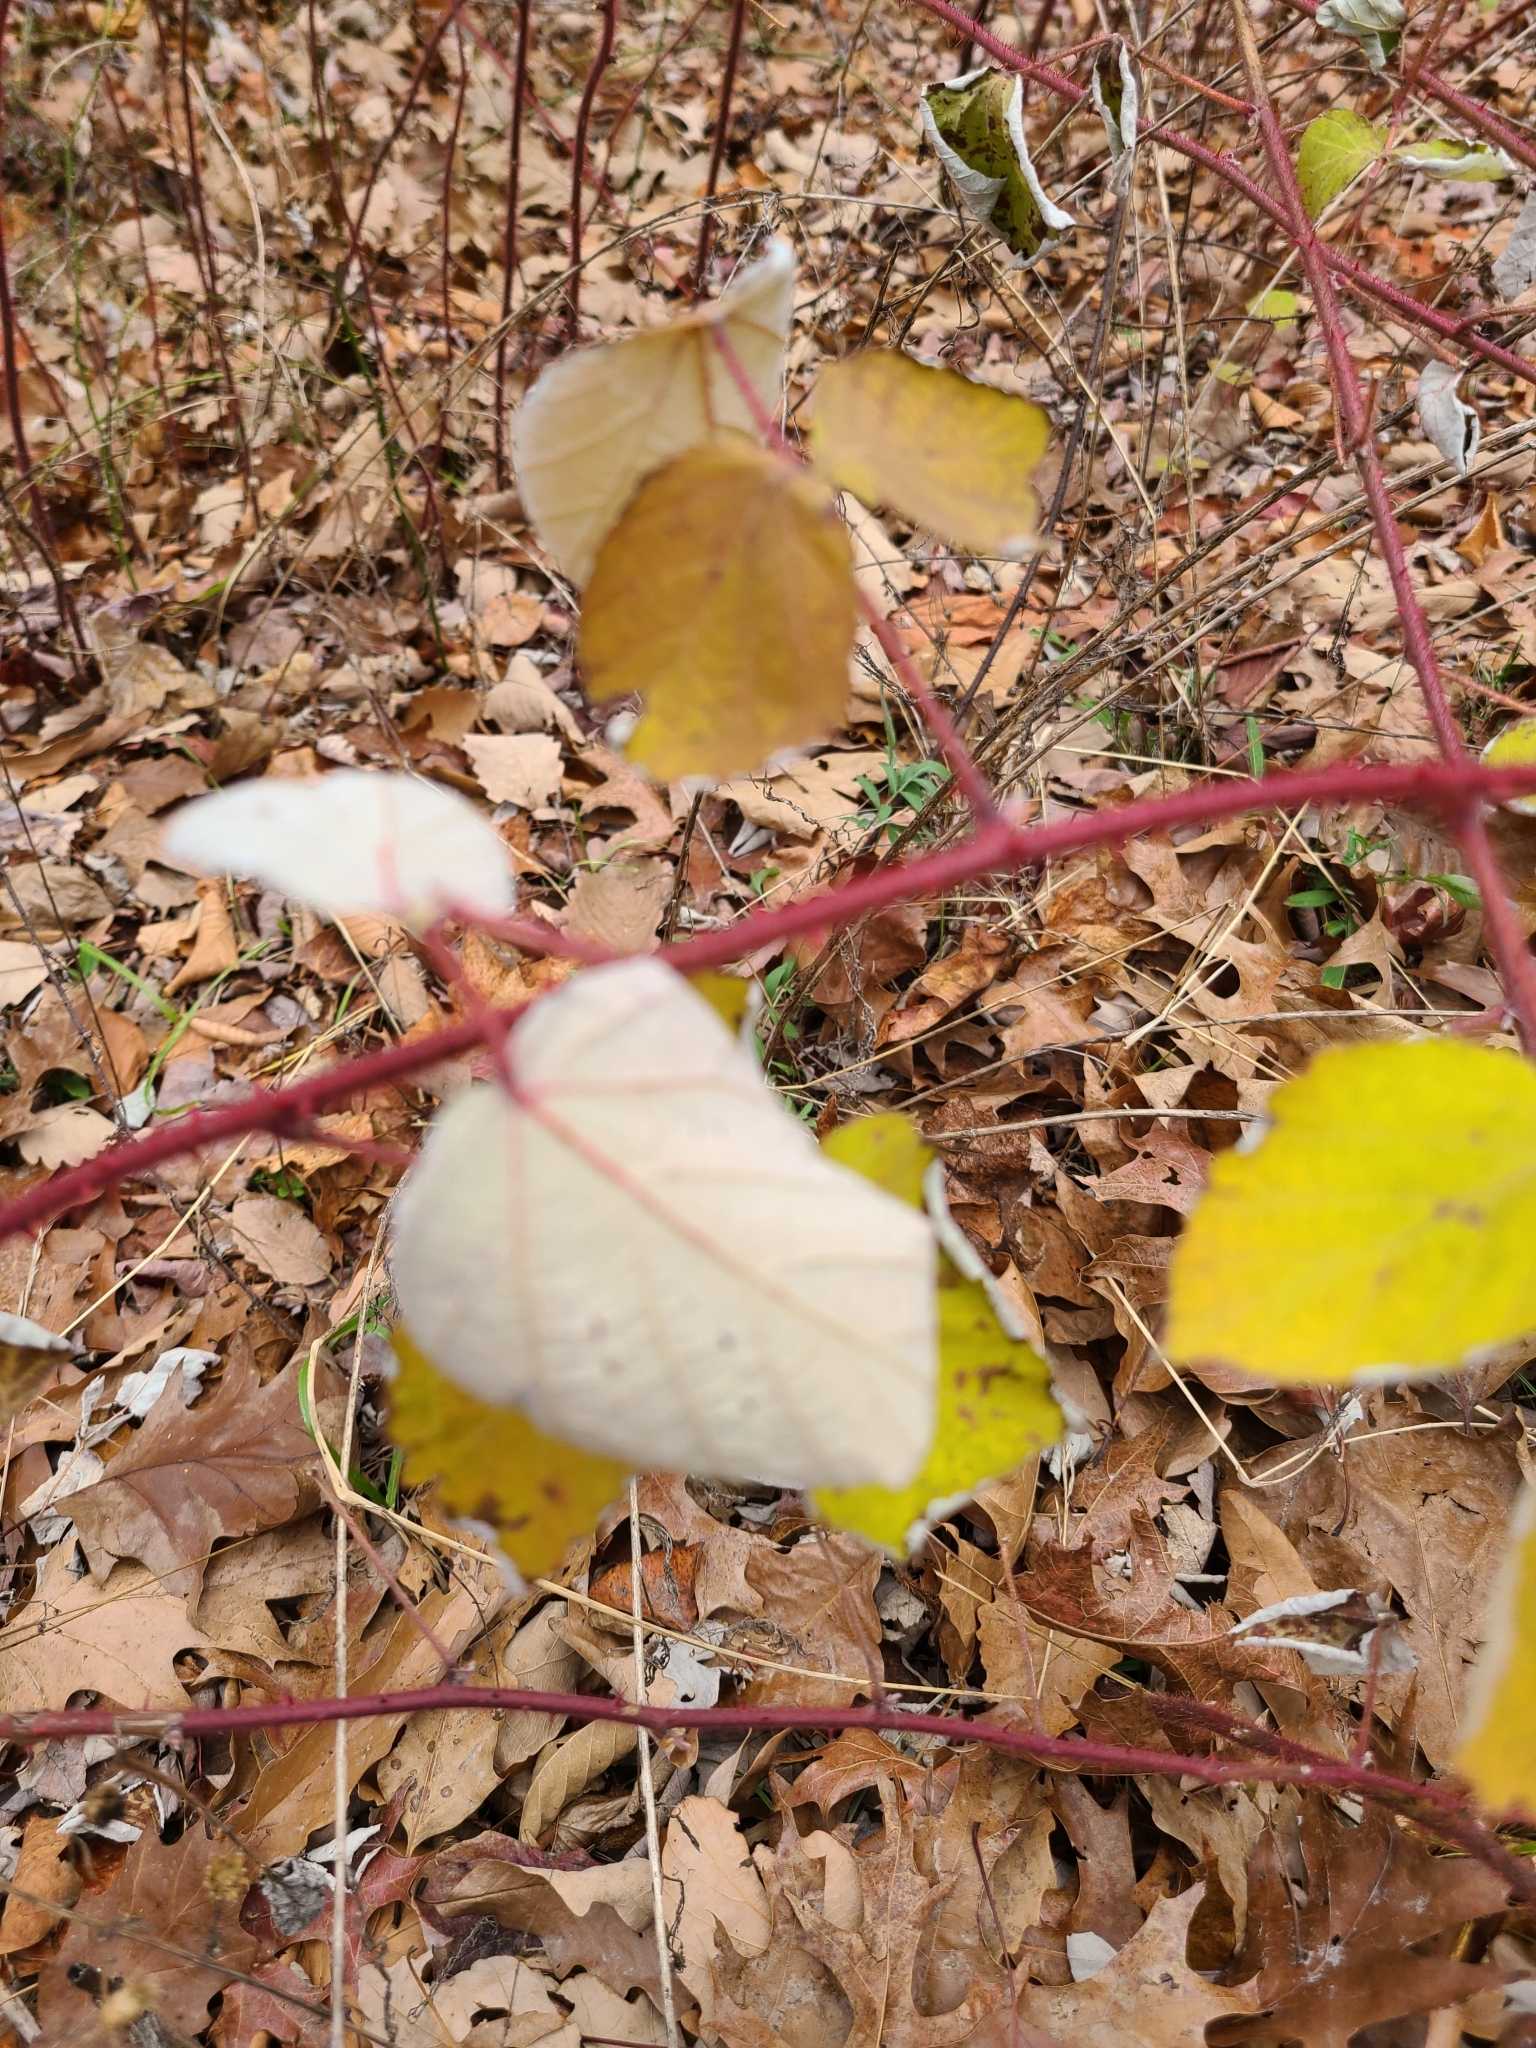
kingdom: Plantae
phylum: Tracheophyta
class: Magnoliopsida
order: Rosales
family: Rosaceae
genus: Rubus
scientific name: Rubus phoenicolasius
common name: Japanese wineberry
